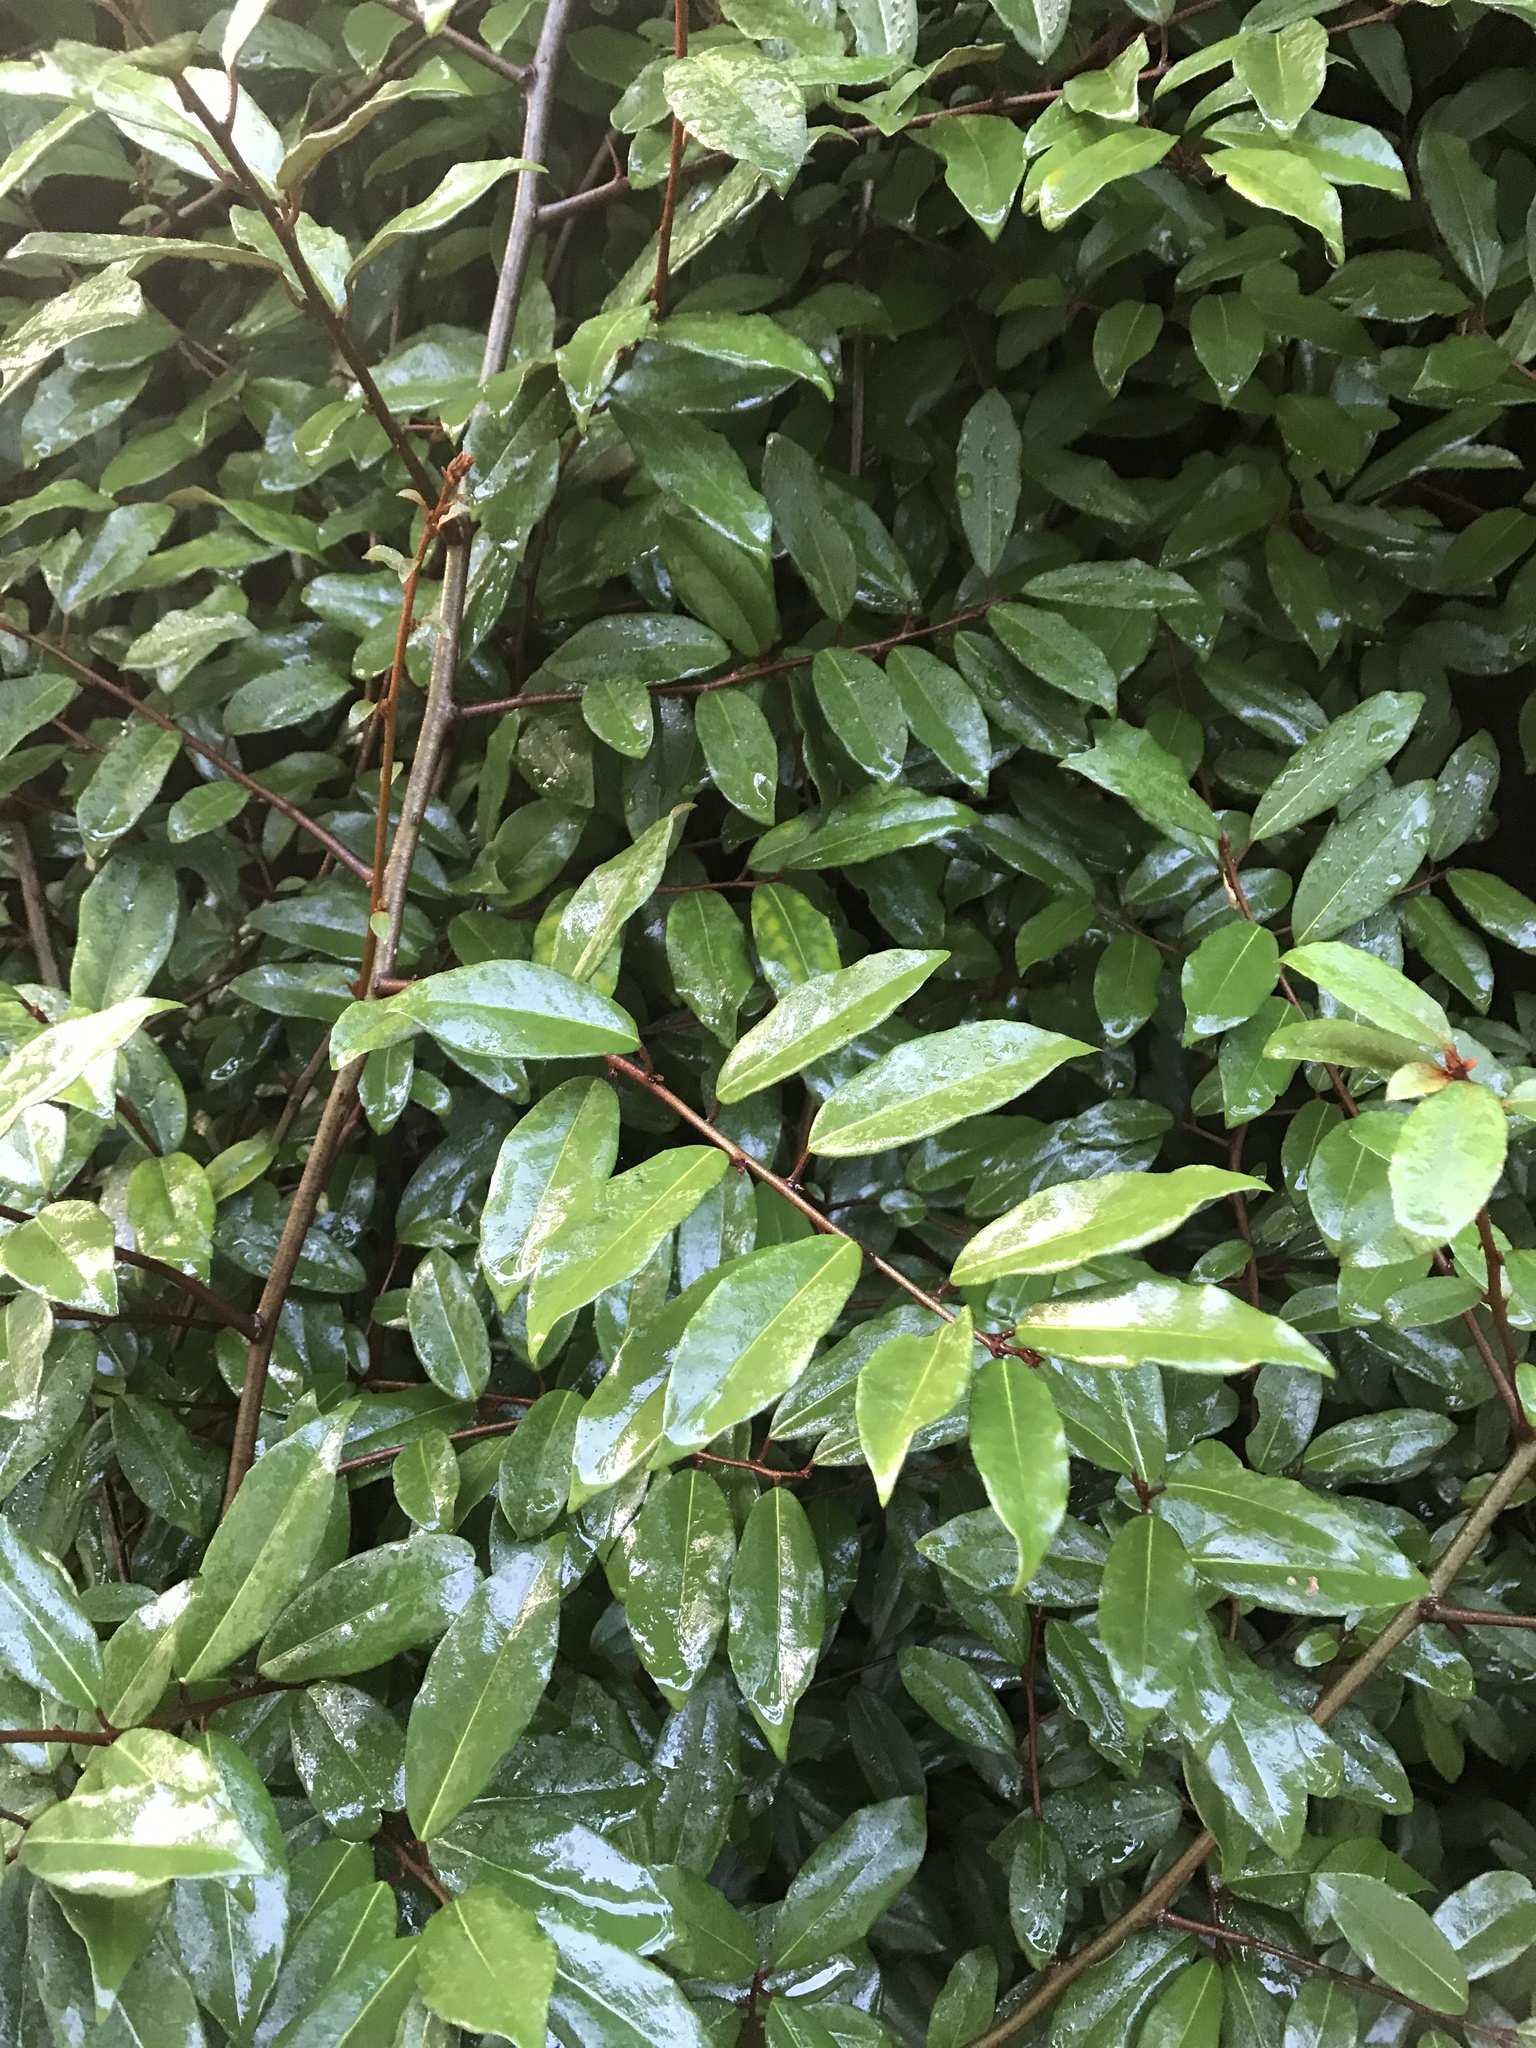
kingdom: Plantae
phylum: Tracheophyta
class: Magnoliopsida
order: Rosales
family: Elaeagnaceae
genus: Elaeagnus
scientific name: Elaeagnus reflexa
